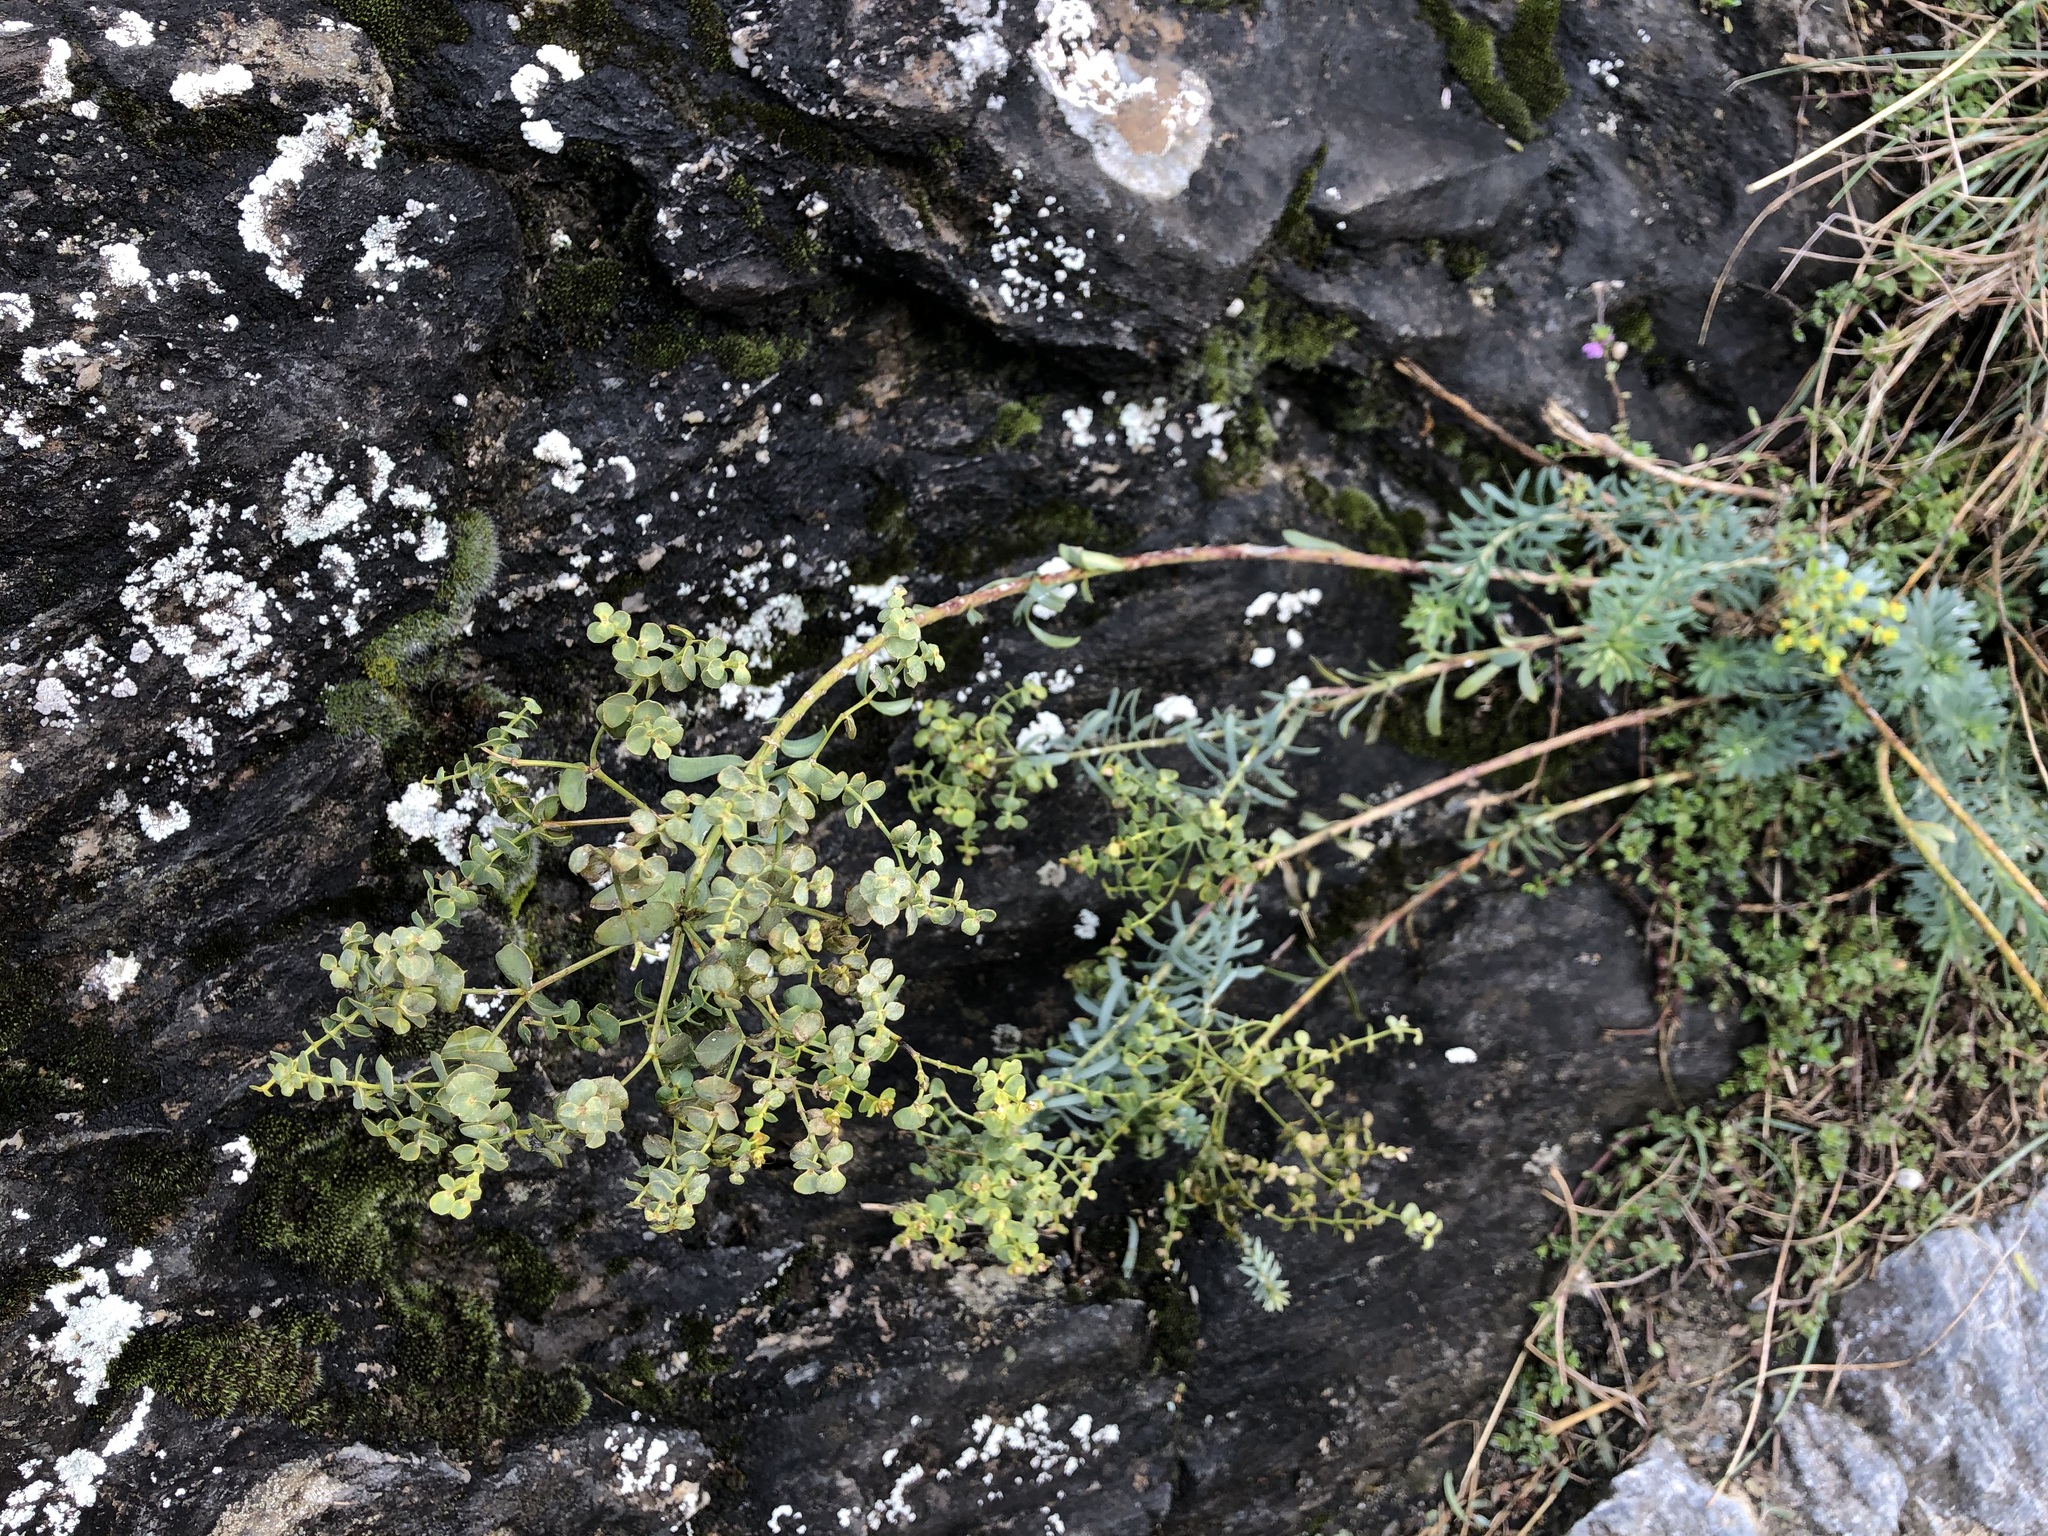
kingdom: Plantae
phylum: Tracheophyta
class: Magnoliopsida
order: Malpighiales
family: Euphorbiaceae
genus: Euphorbia
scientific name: Euphorbia seguieriana
